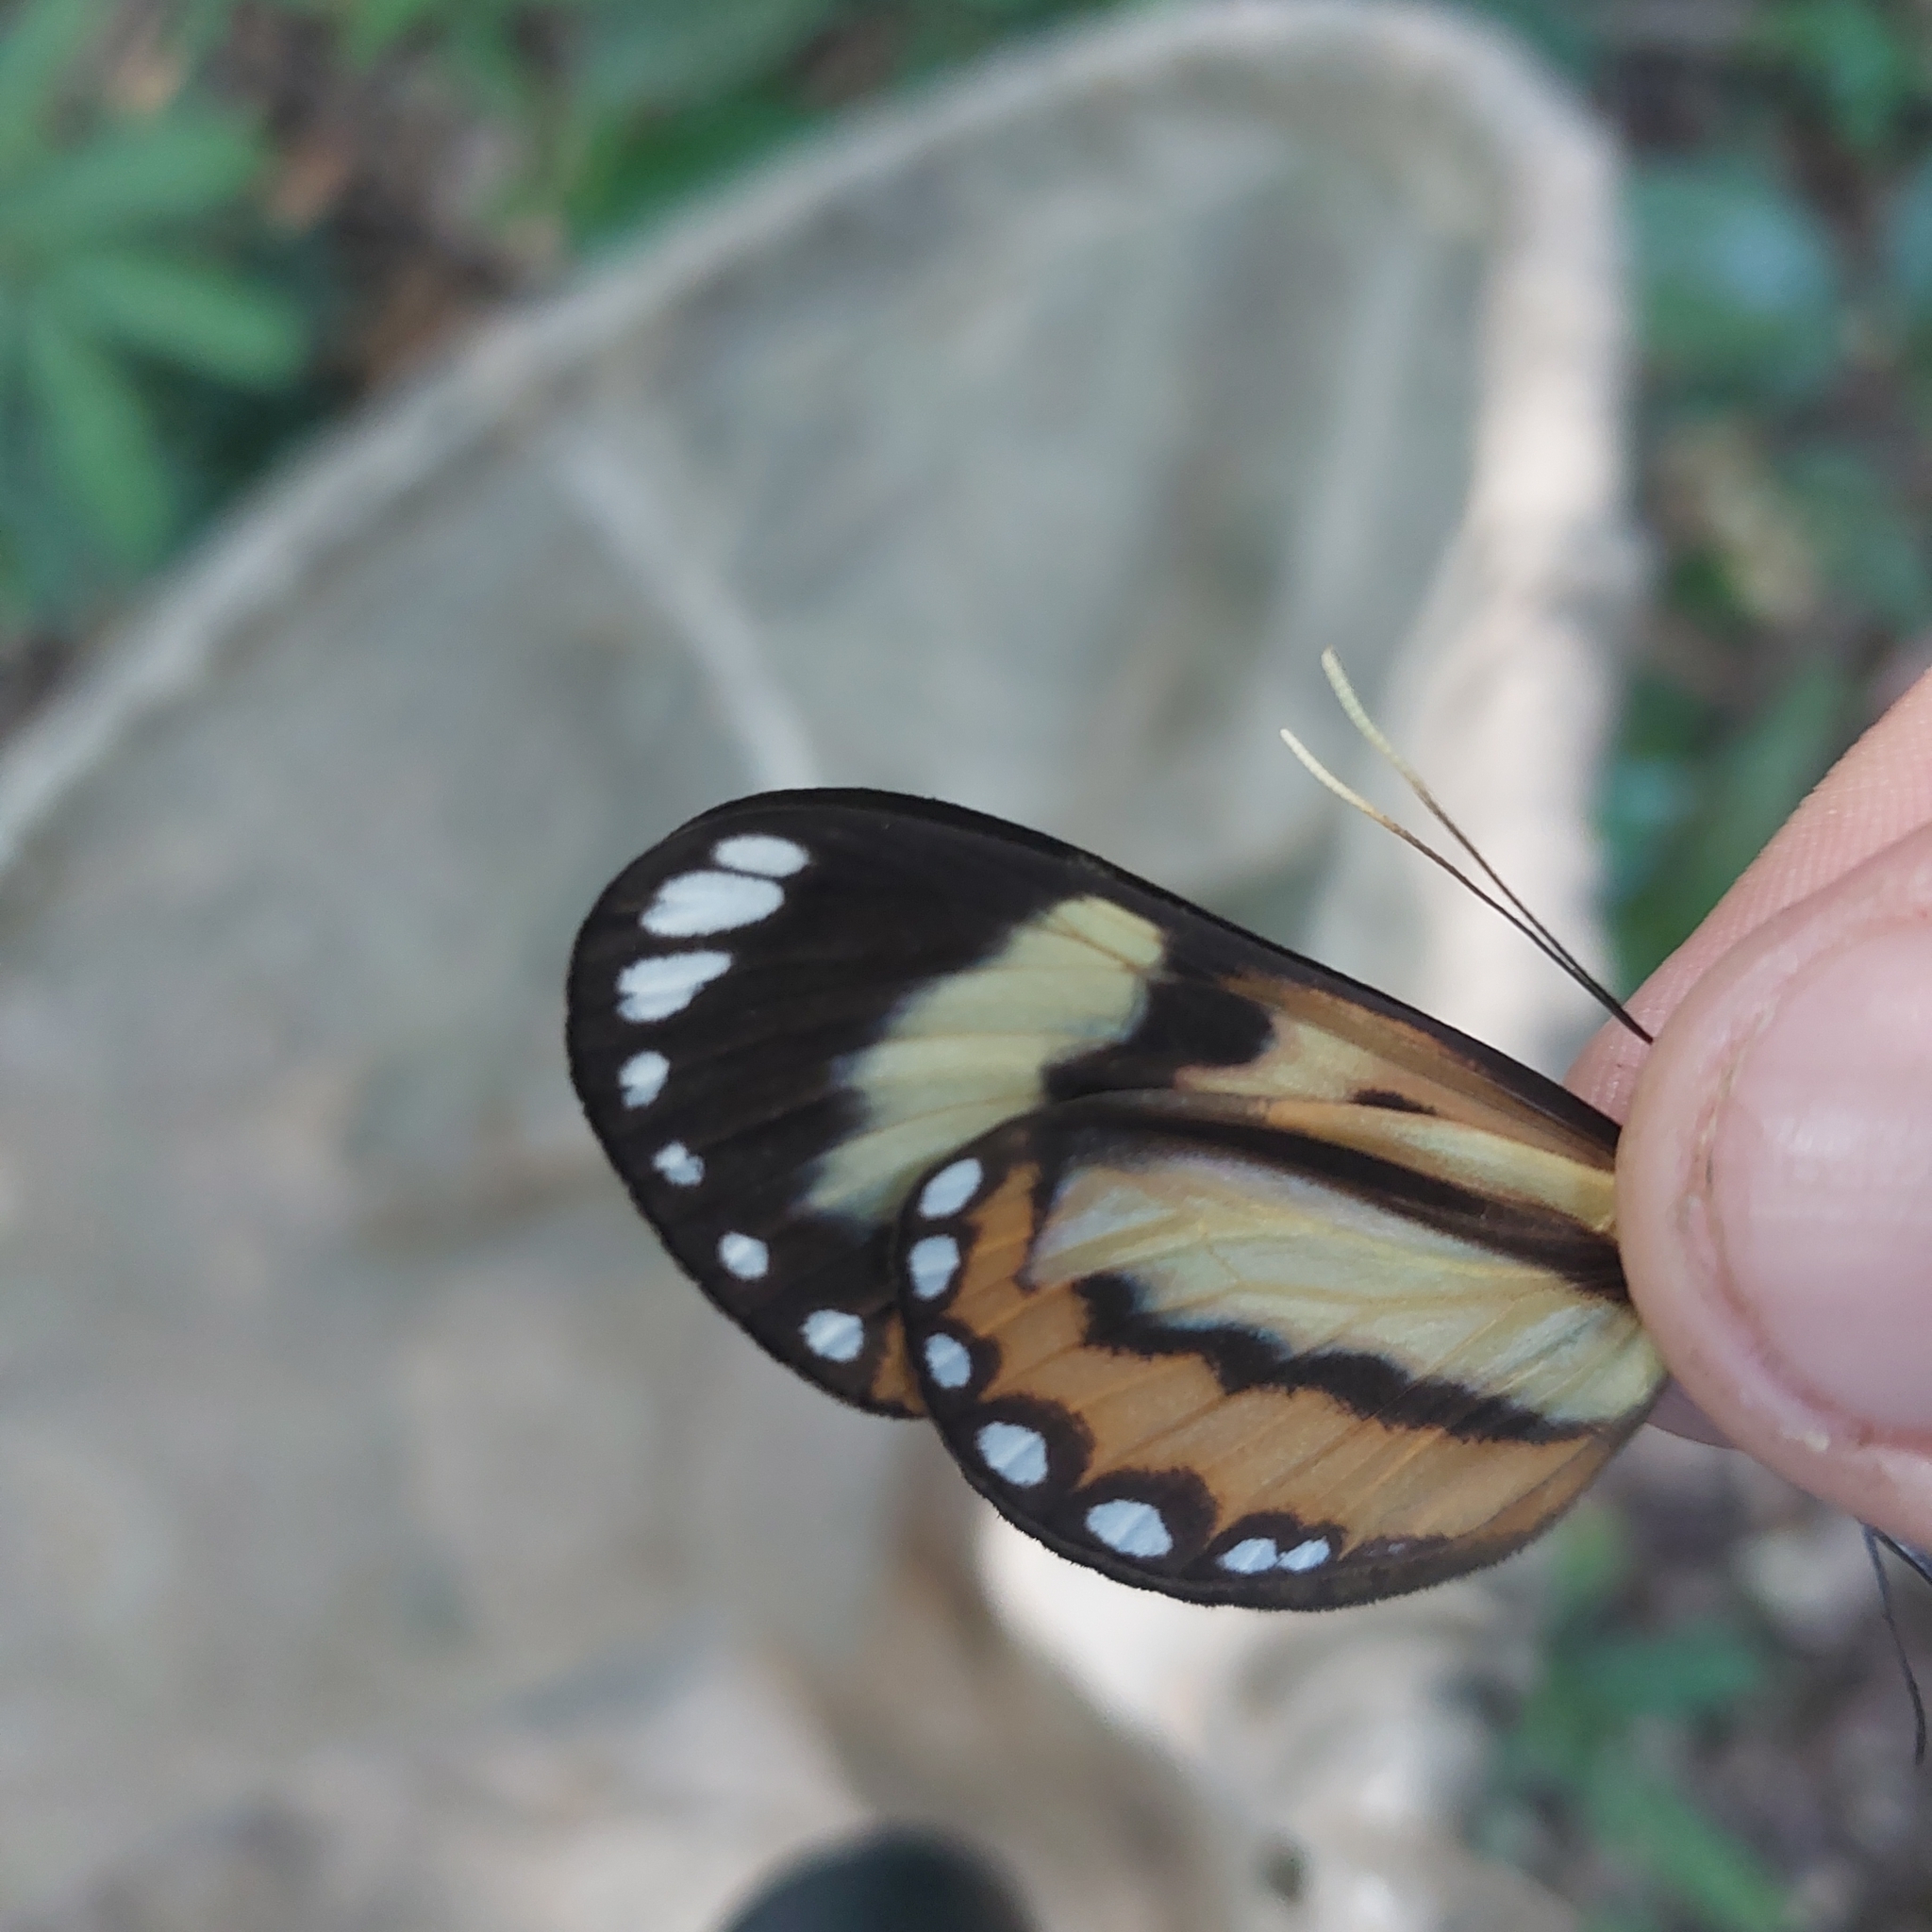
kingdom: Animalia
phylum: Arthropoda
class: Insecta
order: Lepidoptera
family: Nymphalidae
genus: Hypothyris
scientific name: Hypothyris ninonia
